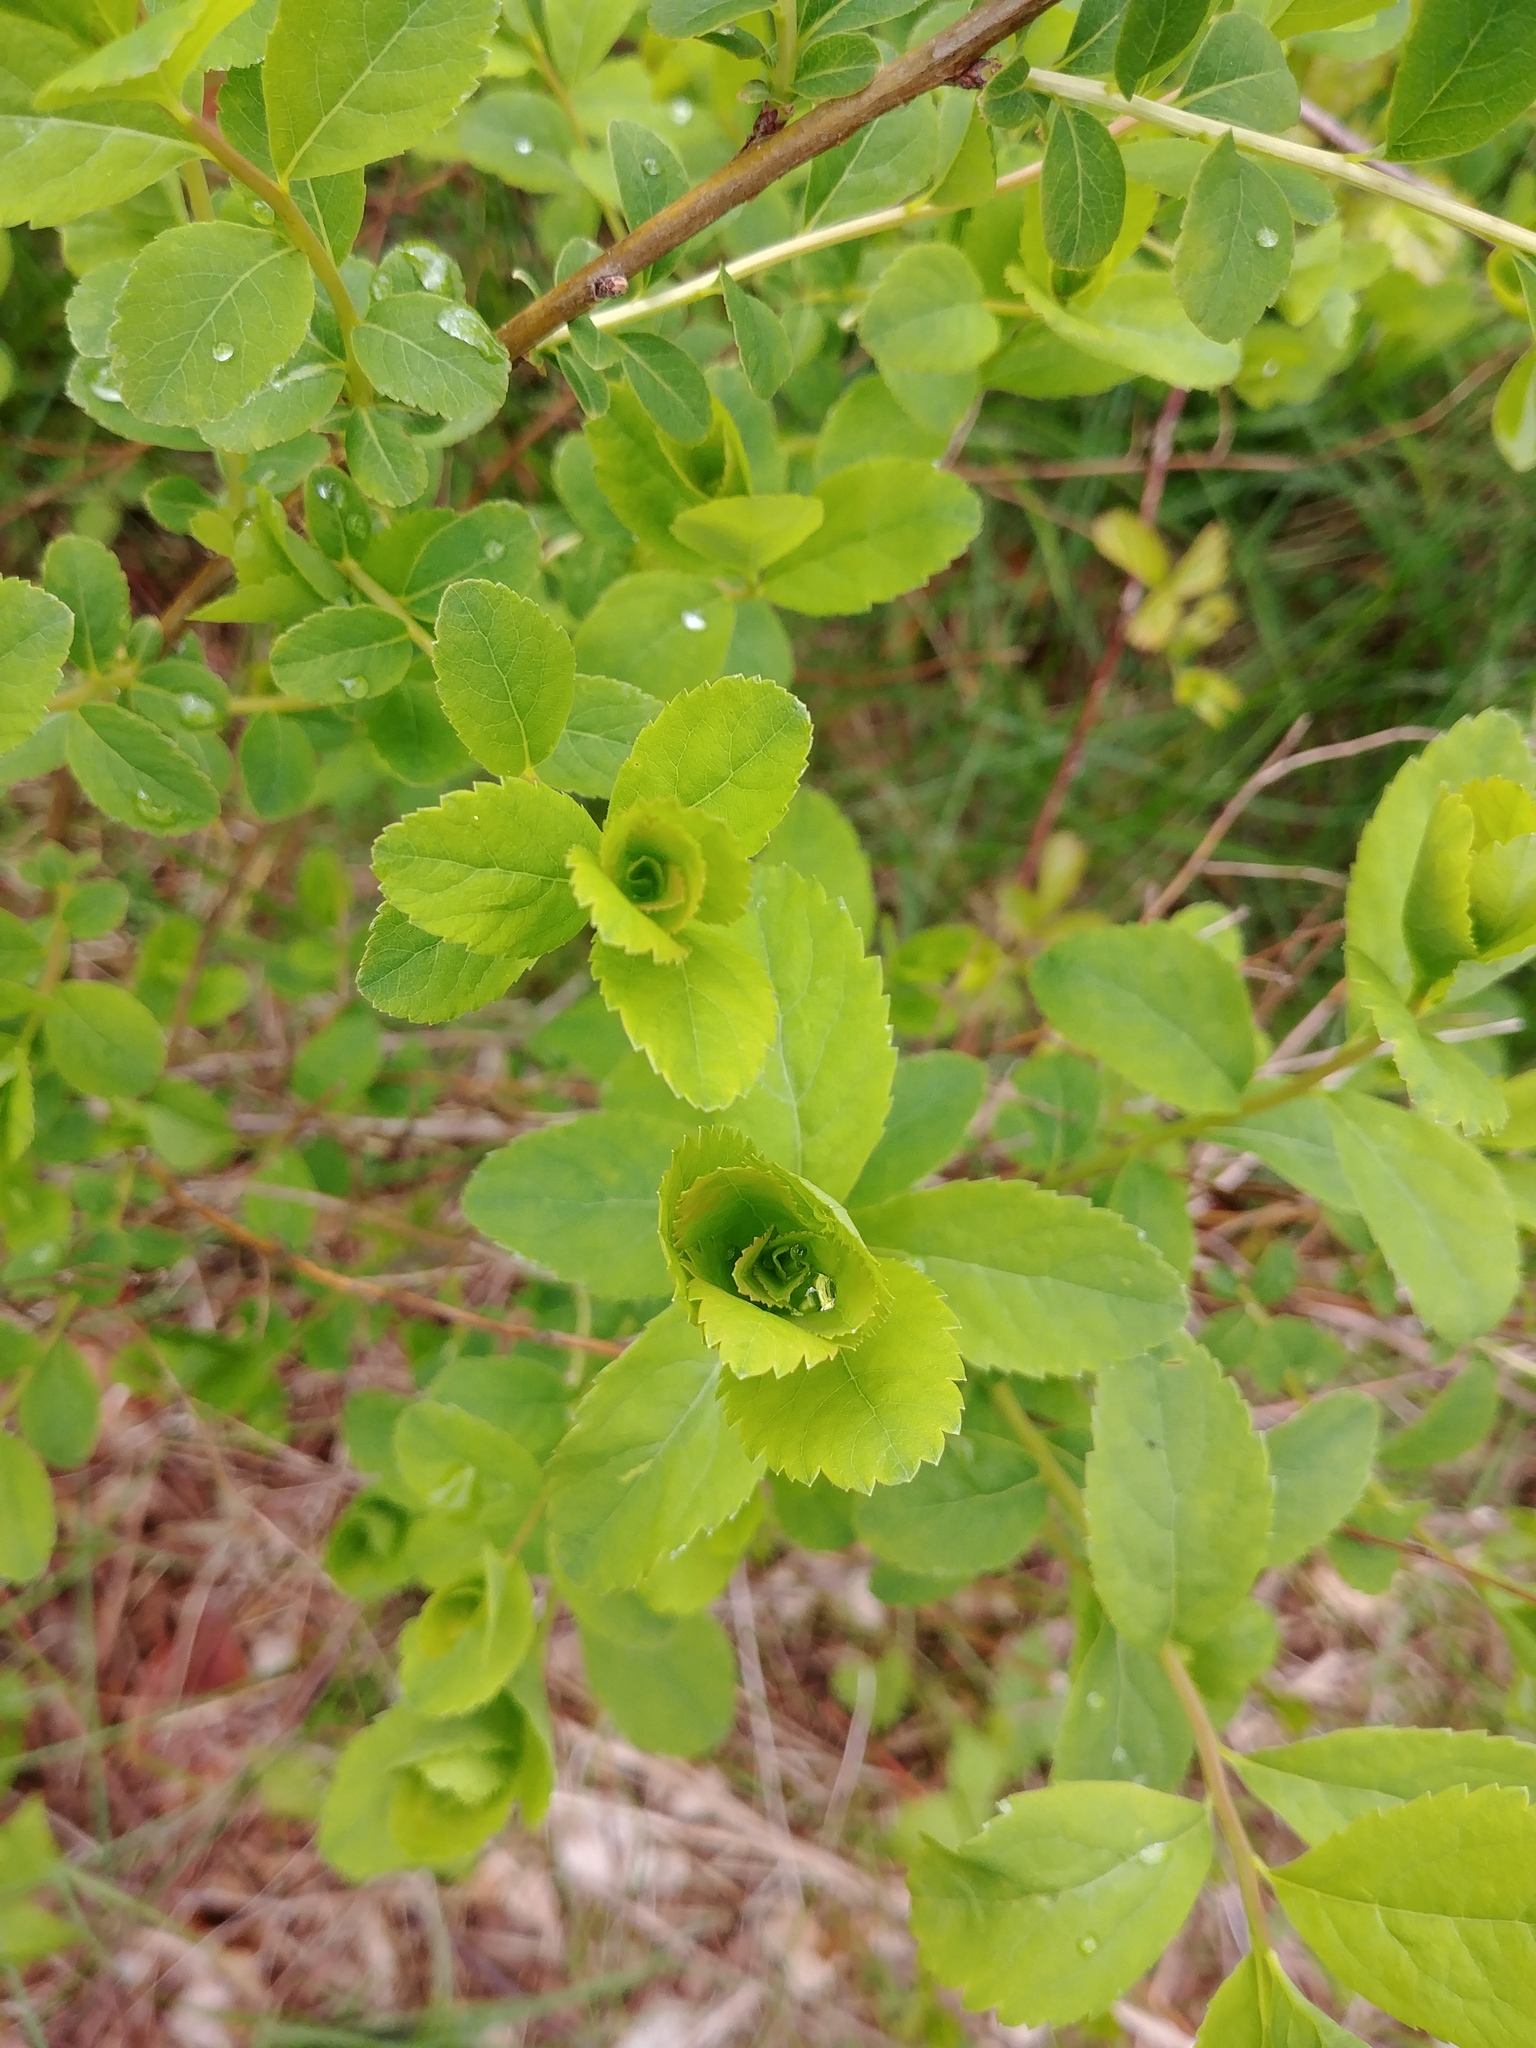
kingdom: Plantae
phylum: Tracheophyta
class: Magnoliopsida
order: Rosales
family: Rosaceae
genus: Spiraea
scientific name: Spiraea alba
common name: Pale bridewort
